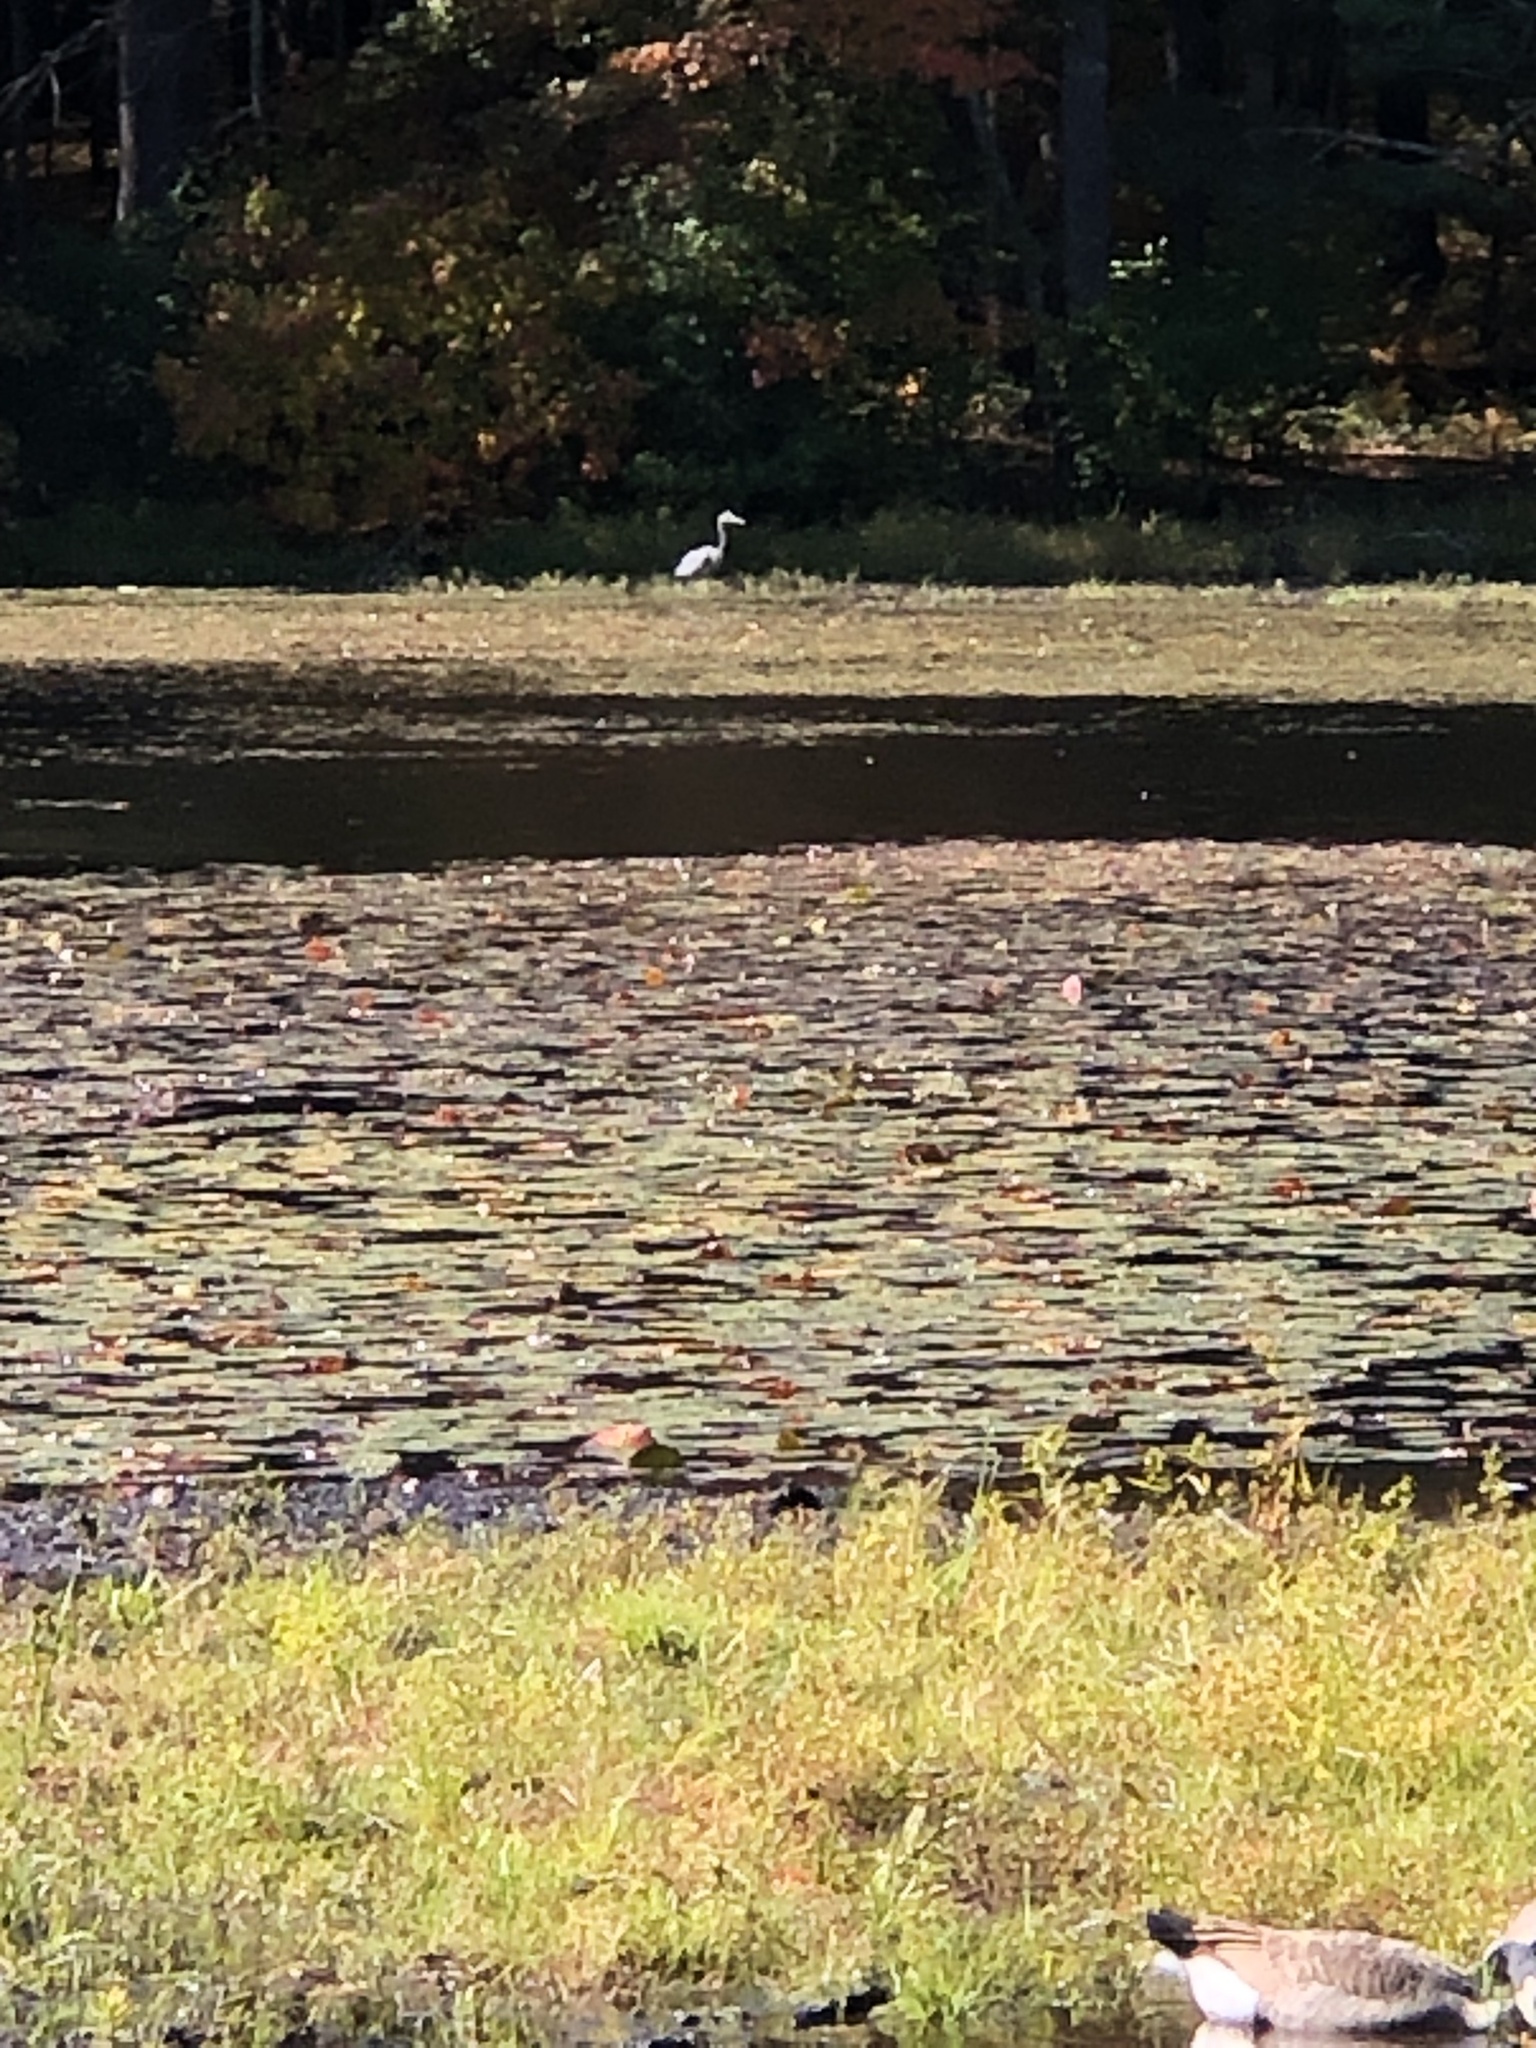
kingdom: Animalia
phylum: Chordata
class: Aves
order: Pelecaniformes
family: Ardeidae
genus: Ardea
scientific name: Ardea herodias
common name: Great blue heron
